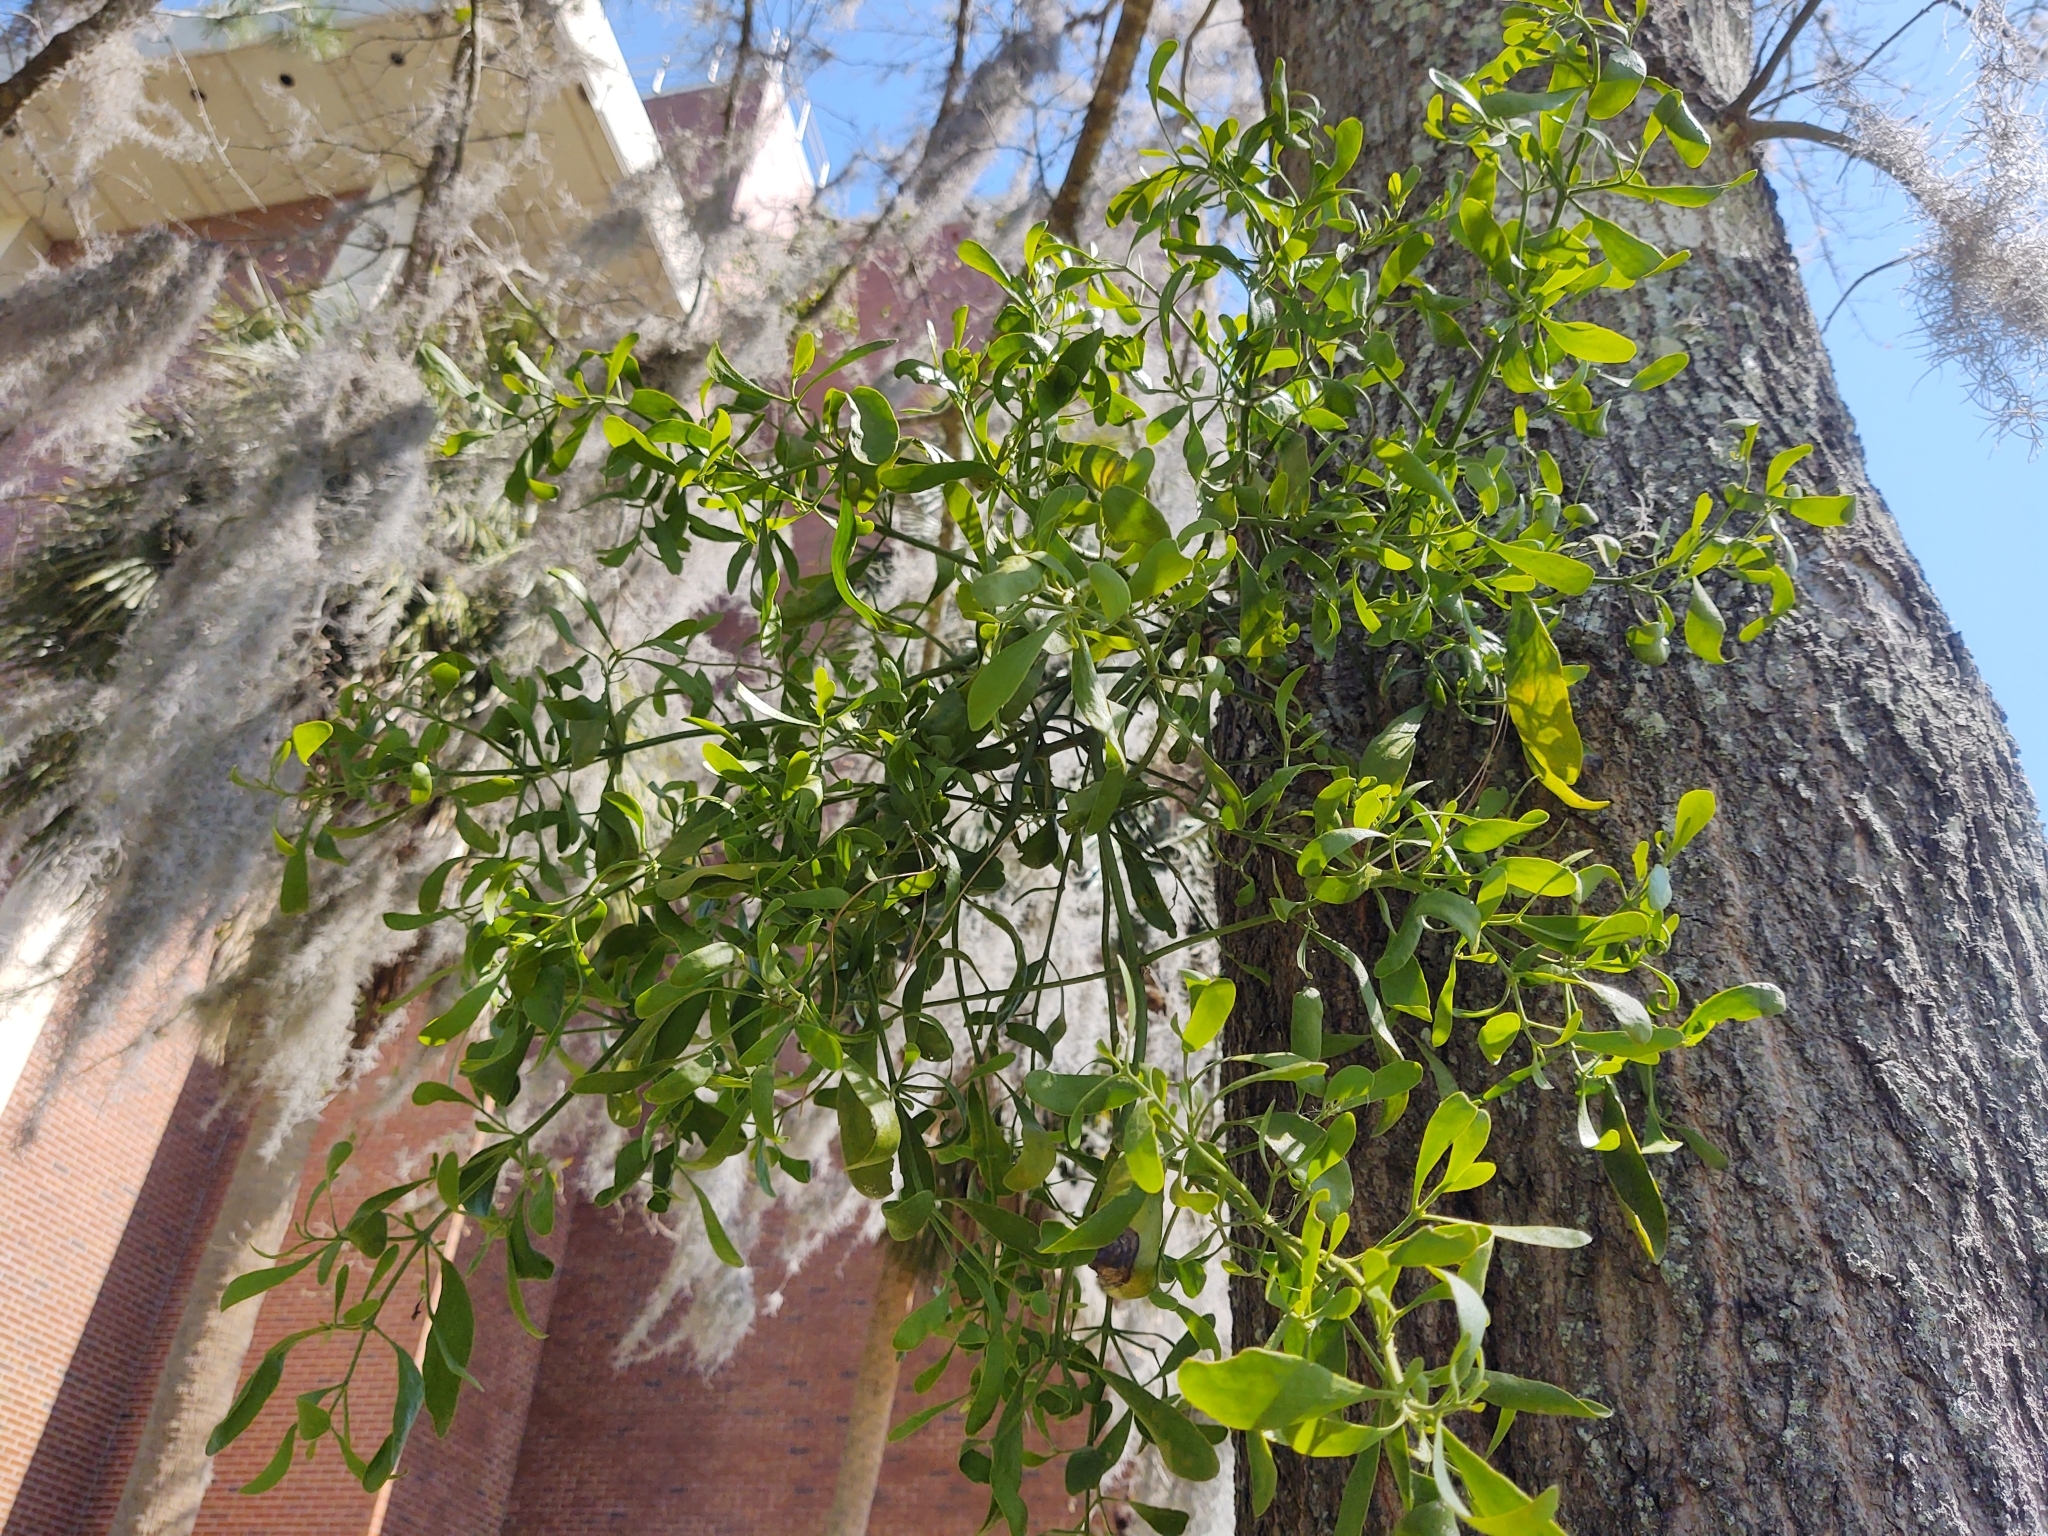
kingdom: Plantae
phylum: Tracheophyta
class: Magnoliopsida
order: Santalales
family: Viscaceae
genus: Phoradendron
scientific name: Phoradendron leucarpum
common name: Pacific mistletoe
